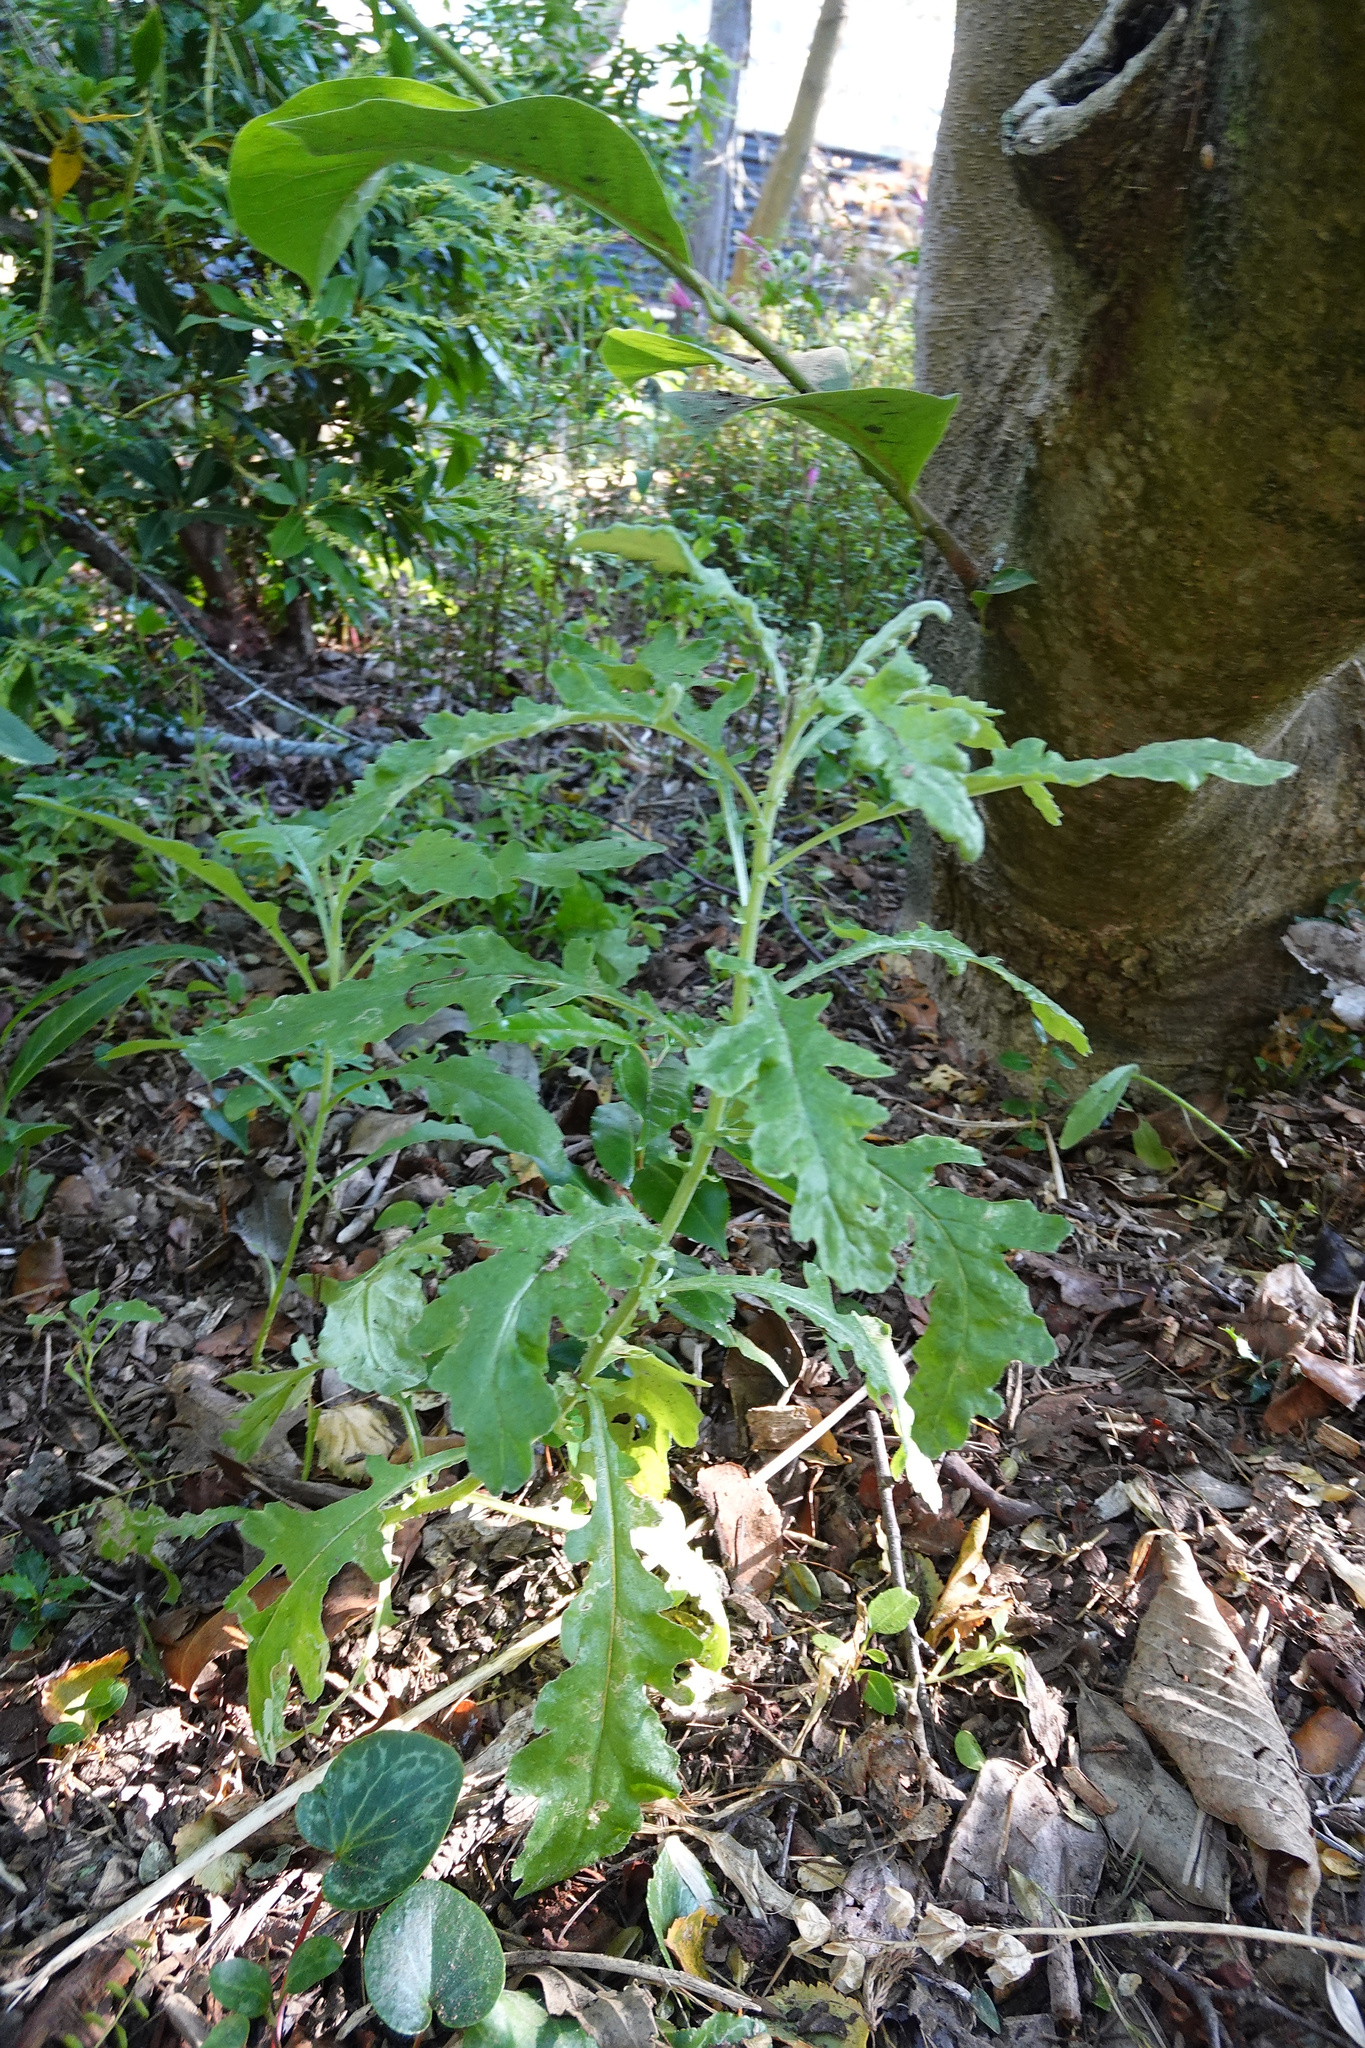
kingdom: Plantae
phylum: Tracheophyta
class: Magnoliopsida
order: Asterales
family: Asteraceae
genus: Senecio
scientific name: Senecio glomeratus
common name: Cutleaf burnweed
